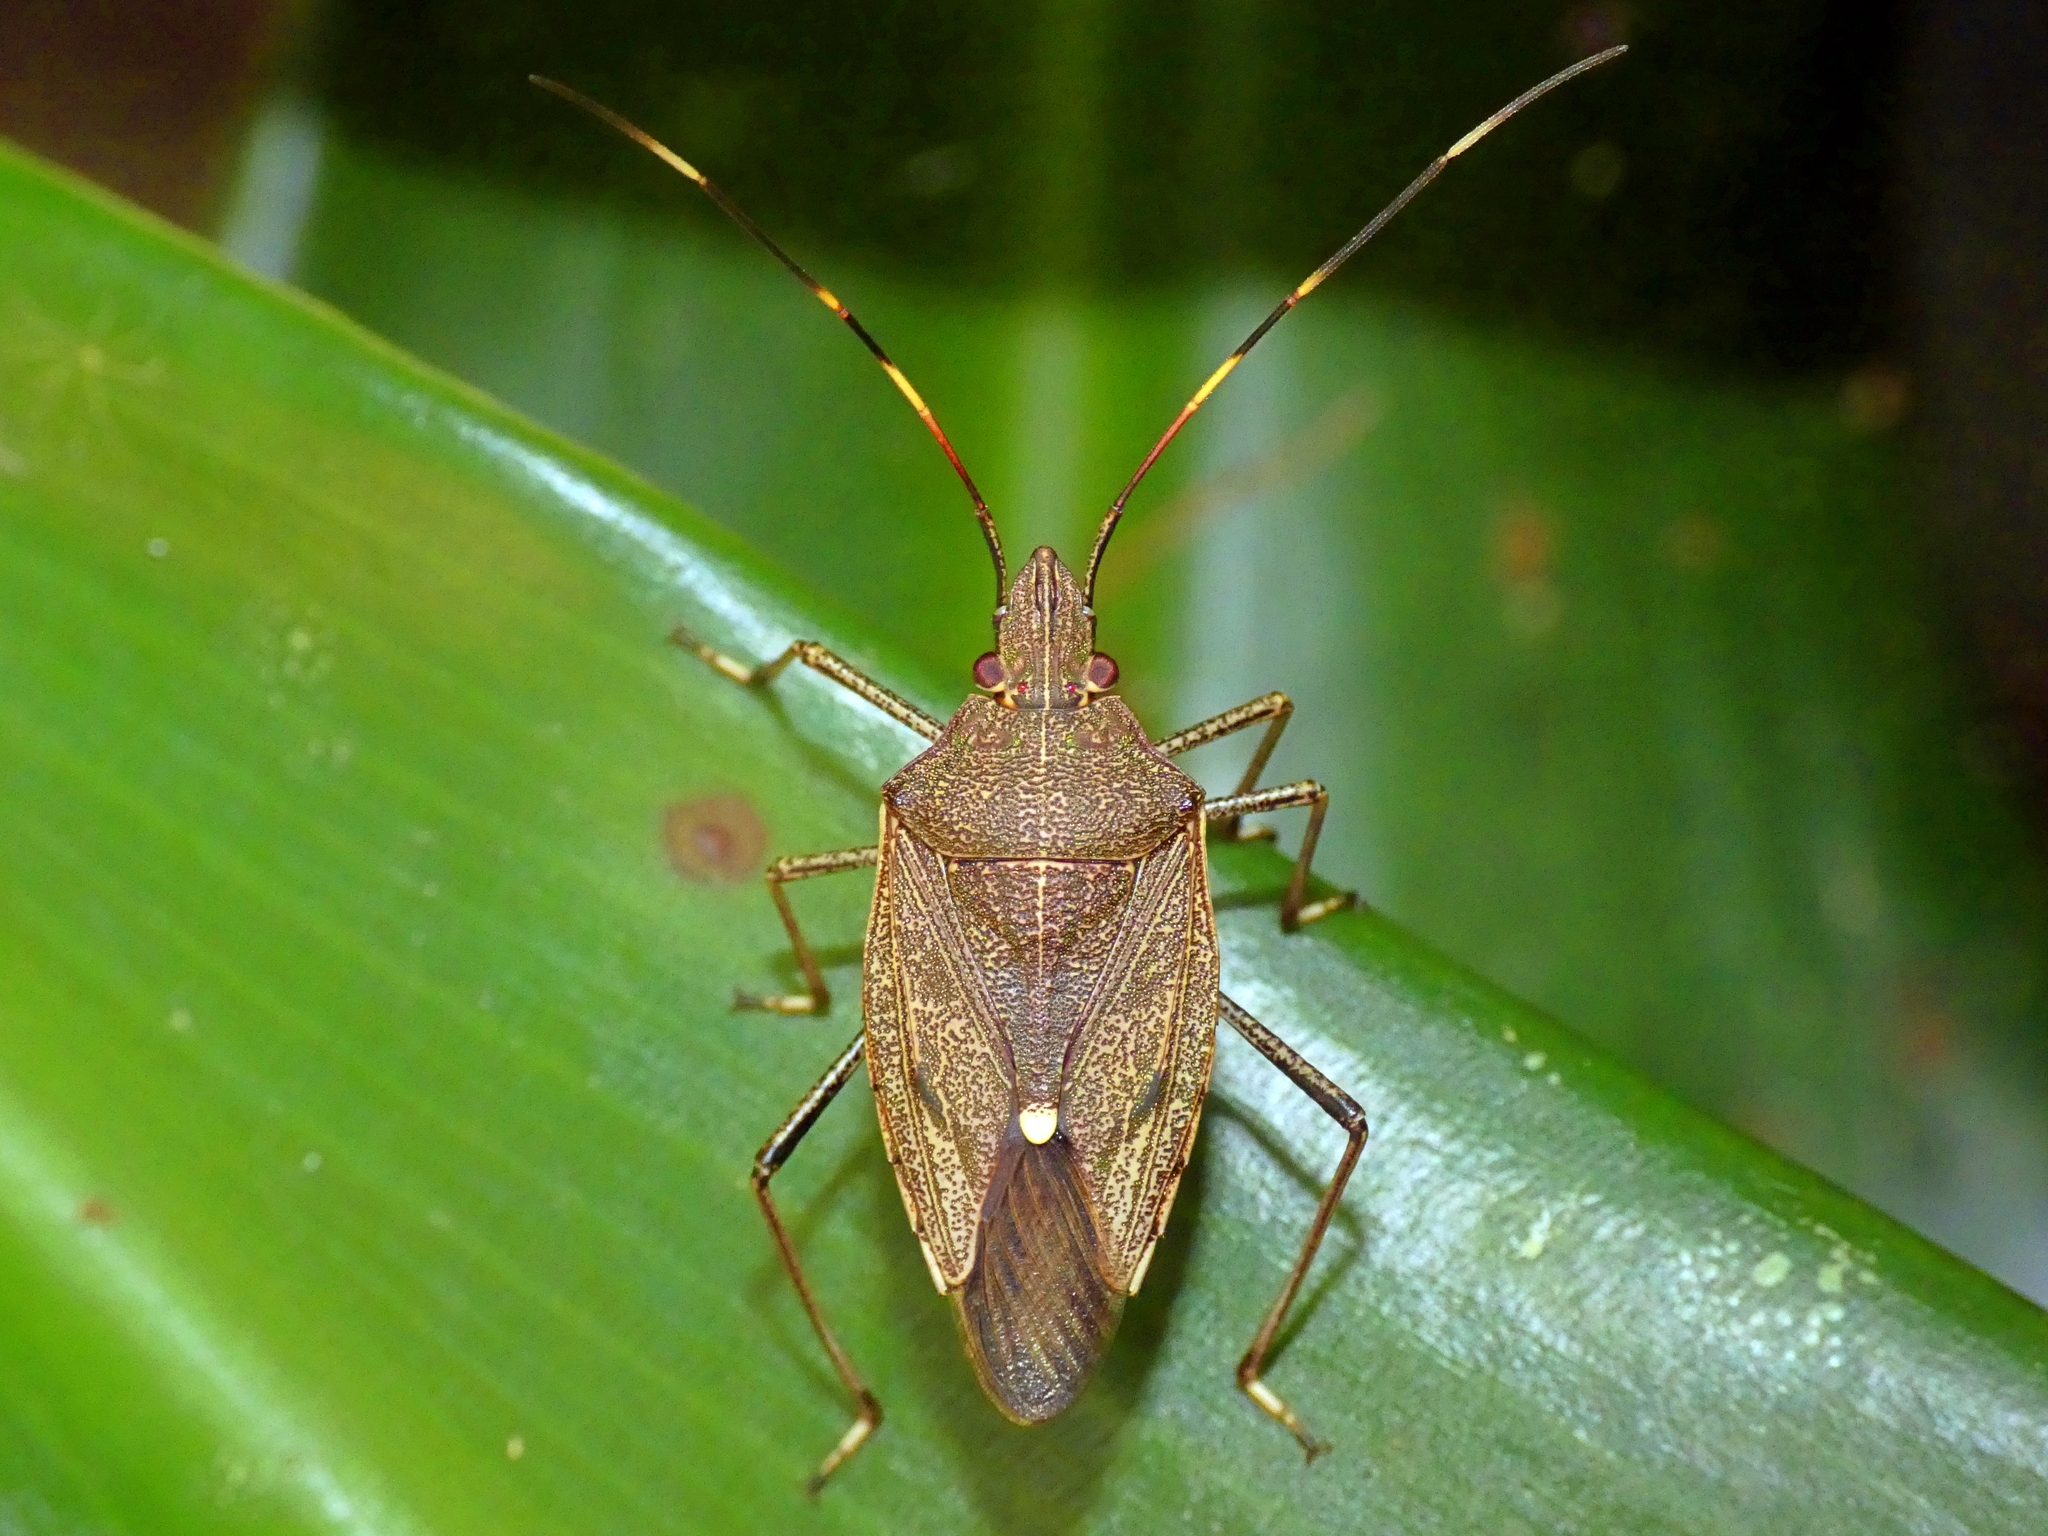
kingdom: Animalia
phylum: Arthropoda
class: Insecta
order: Hemiptera
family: Pentatomidae
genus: Poecilometis
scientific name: Poecilometis
